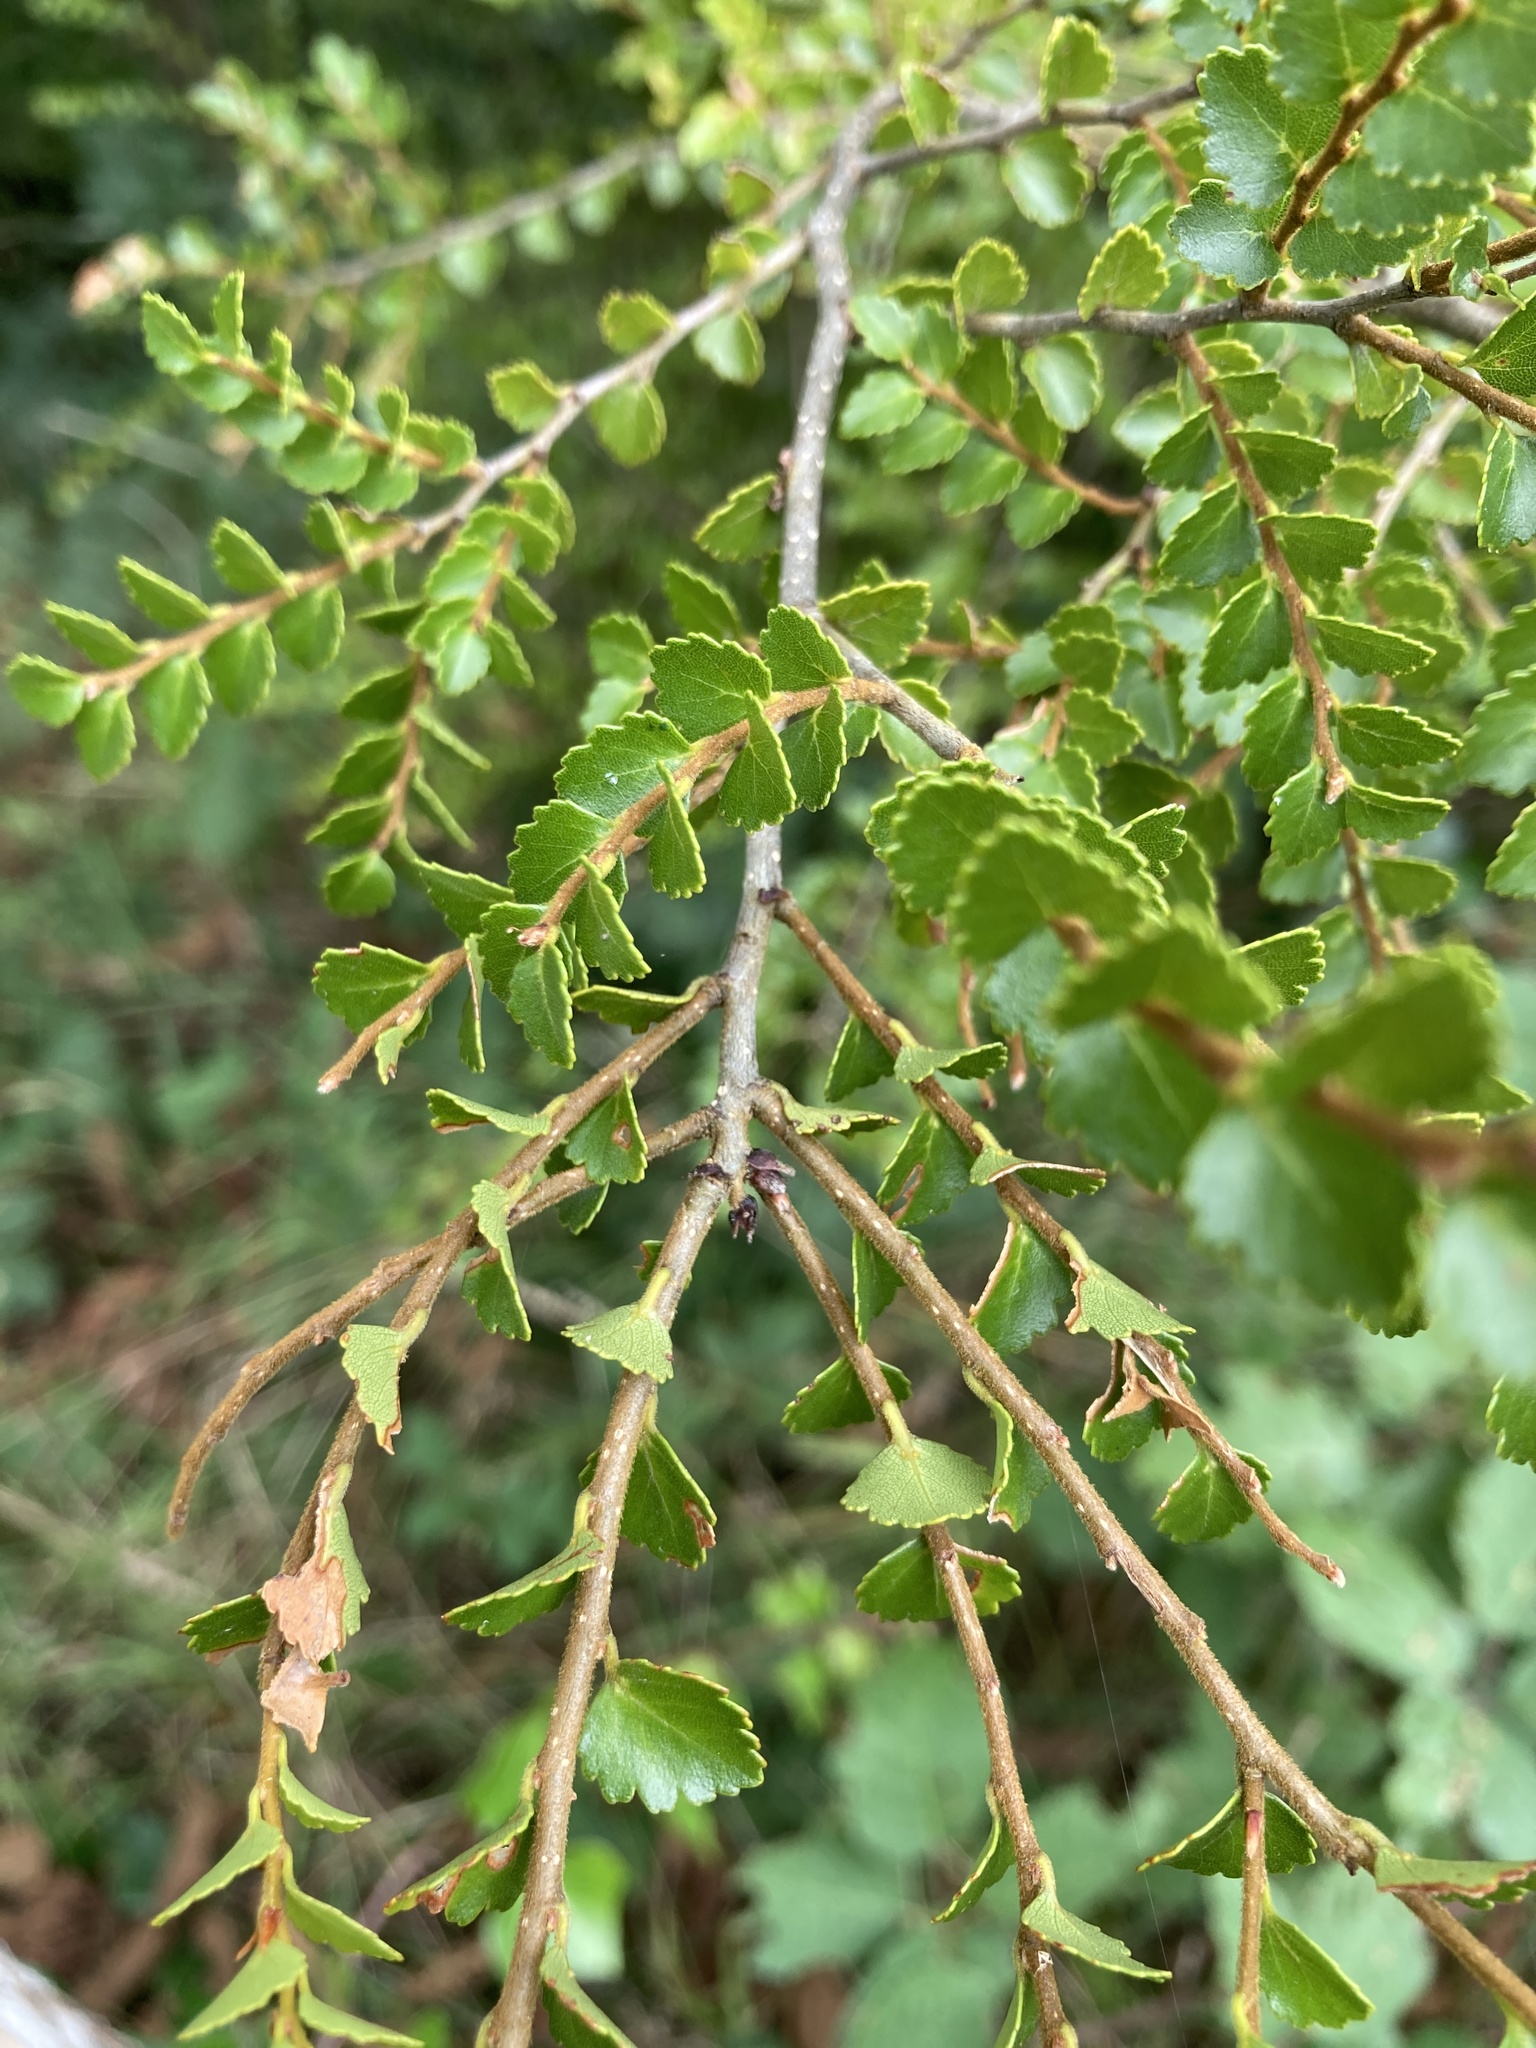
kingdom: Plantae
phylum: Tracheophyta
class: Magnoliopsida
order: Fagales
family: Nothofagaceae
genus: Nothofagus
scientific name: Nothofagus menziesii
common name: Silver beech
